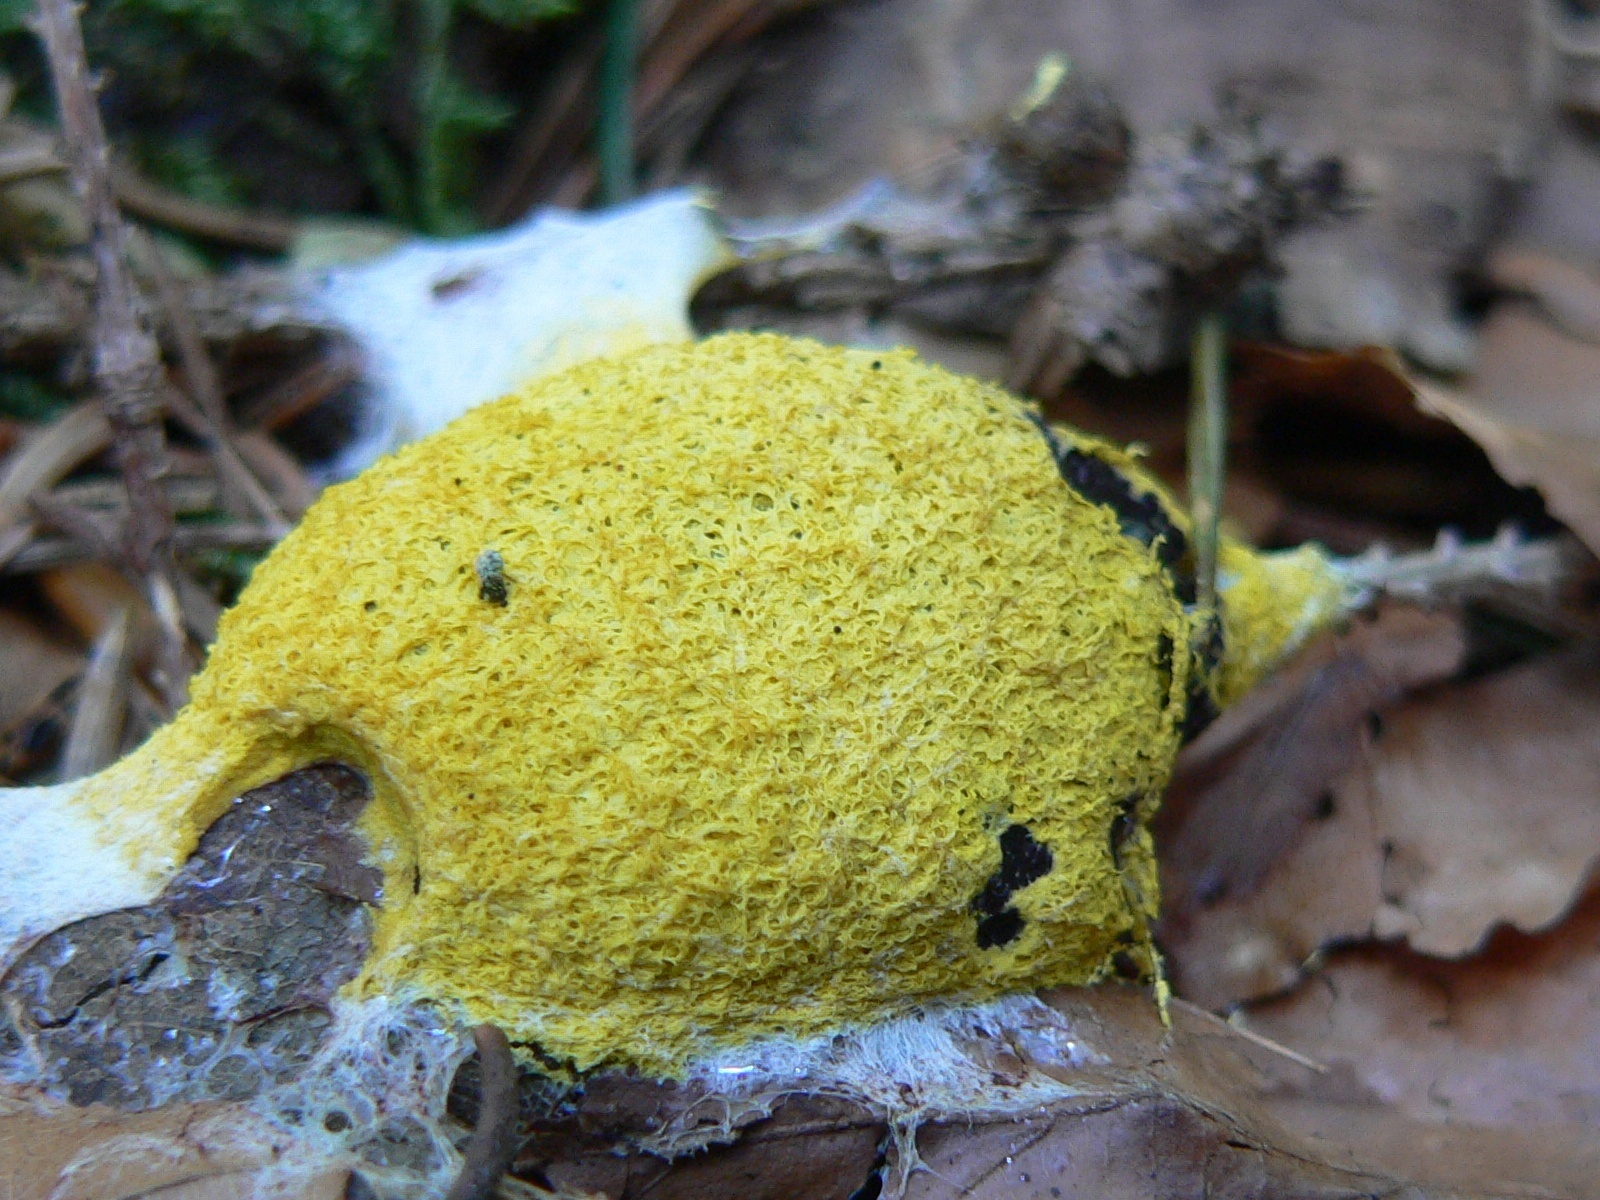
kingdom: Protozoa
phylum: Mycetozoa
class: Myxomycetes
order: Physarales
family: Physaraceae
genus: Fuligo
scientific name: Fuligo septica
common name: Dog vomit slime mold
